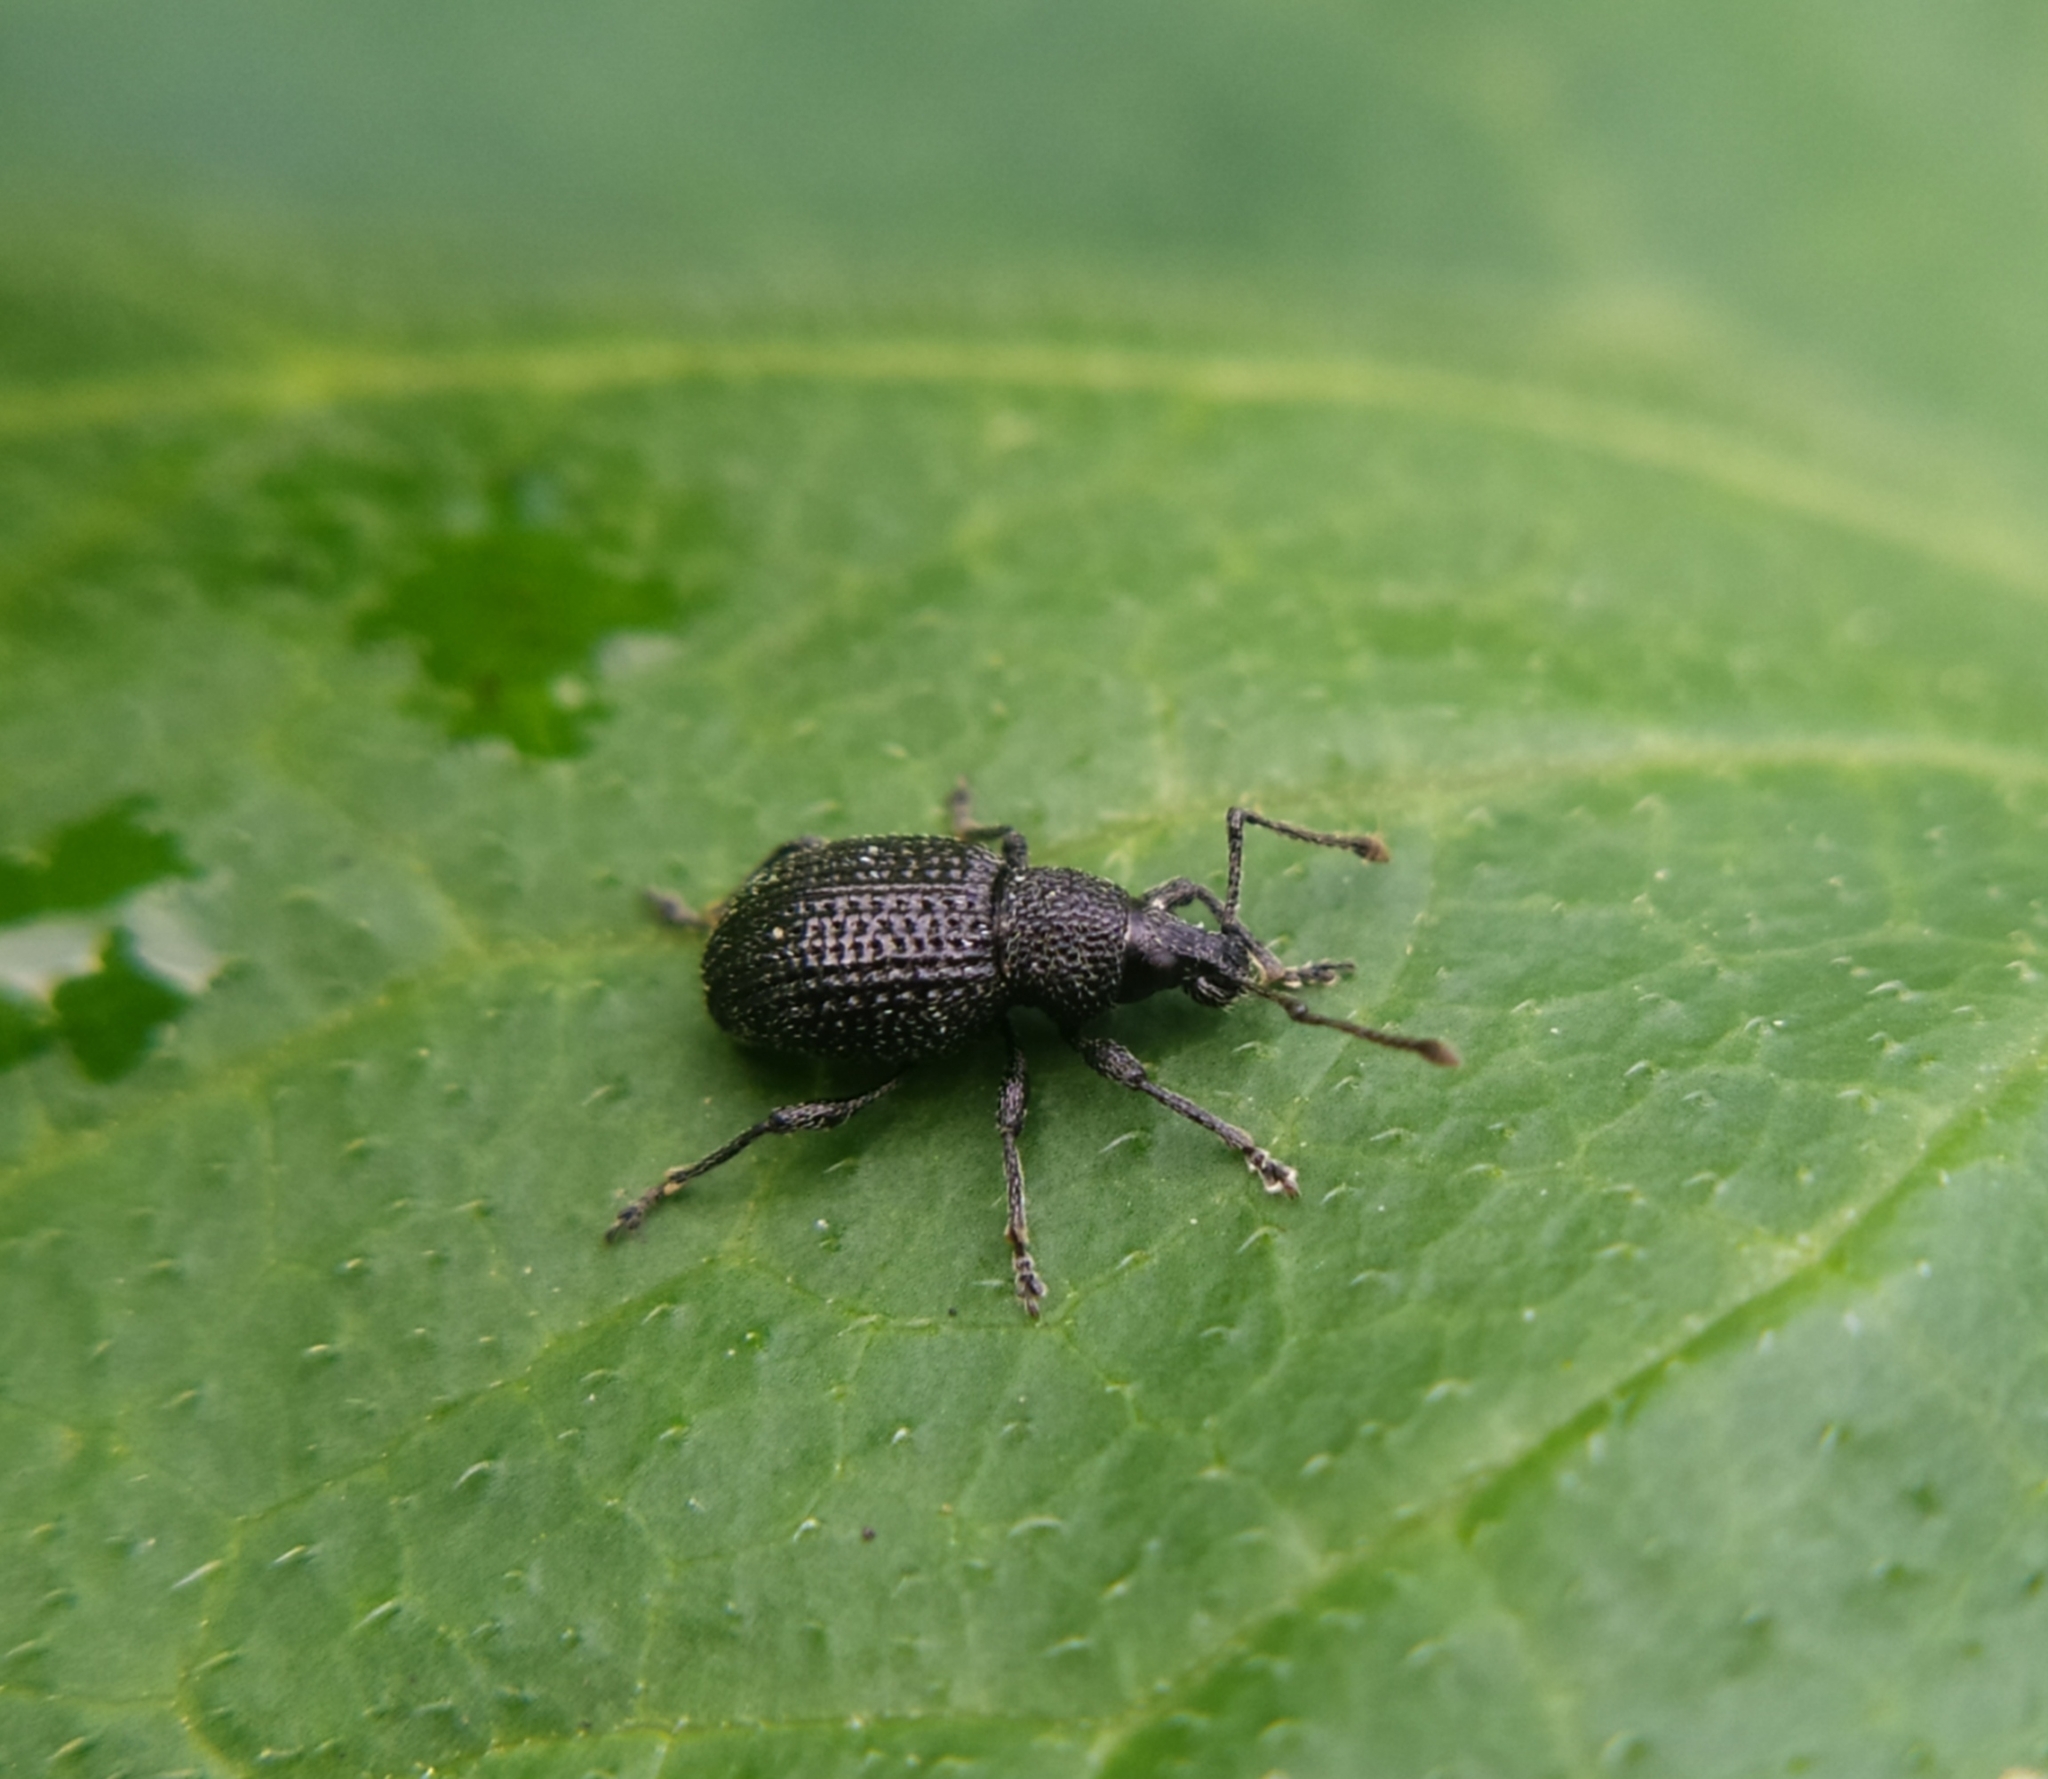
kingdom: Animalia
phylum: Arthropoda
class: Insecta
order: Coleoptera
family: Curculionidae
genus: Otiorhynchus
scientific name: Otiorhynchus pinastri
